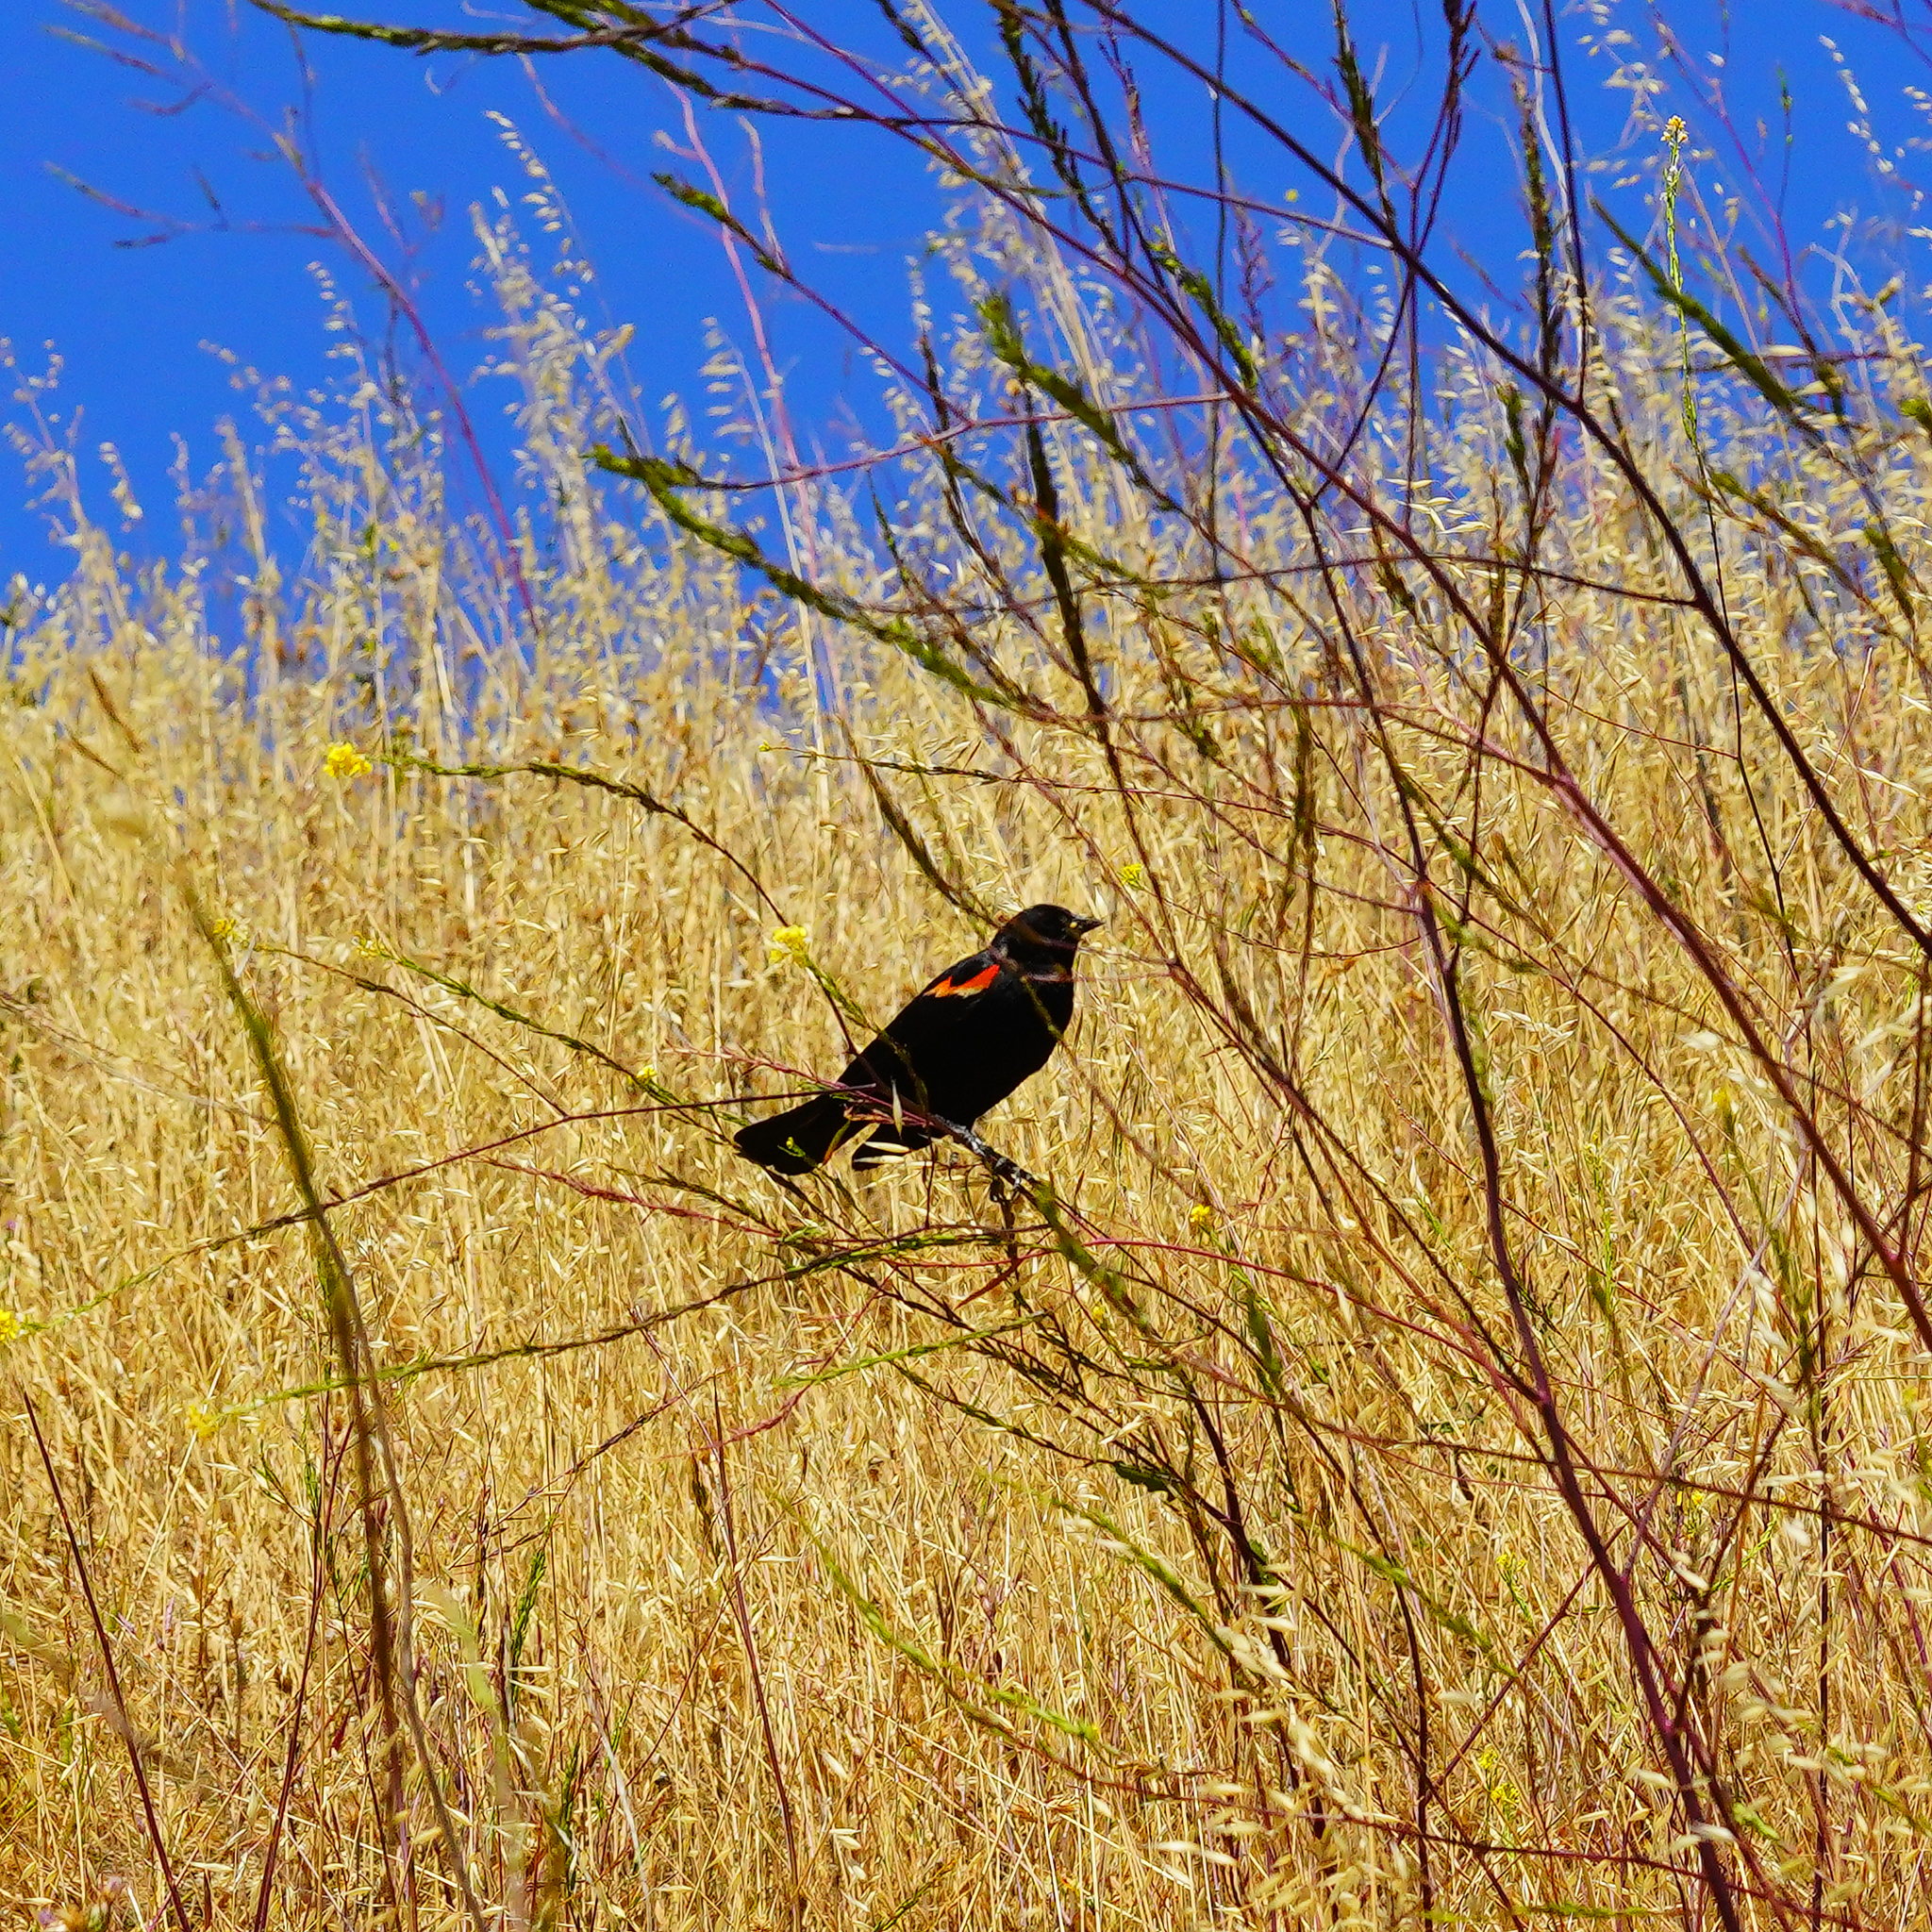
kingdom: Animalia
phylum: Chordata
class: Aves
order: Passeriformes
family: Icteridae
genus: Agelaius
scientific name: Agelaius phoeniceus
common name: Red-winged blackbird
